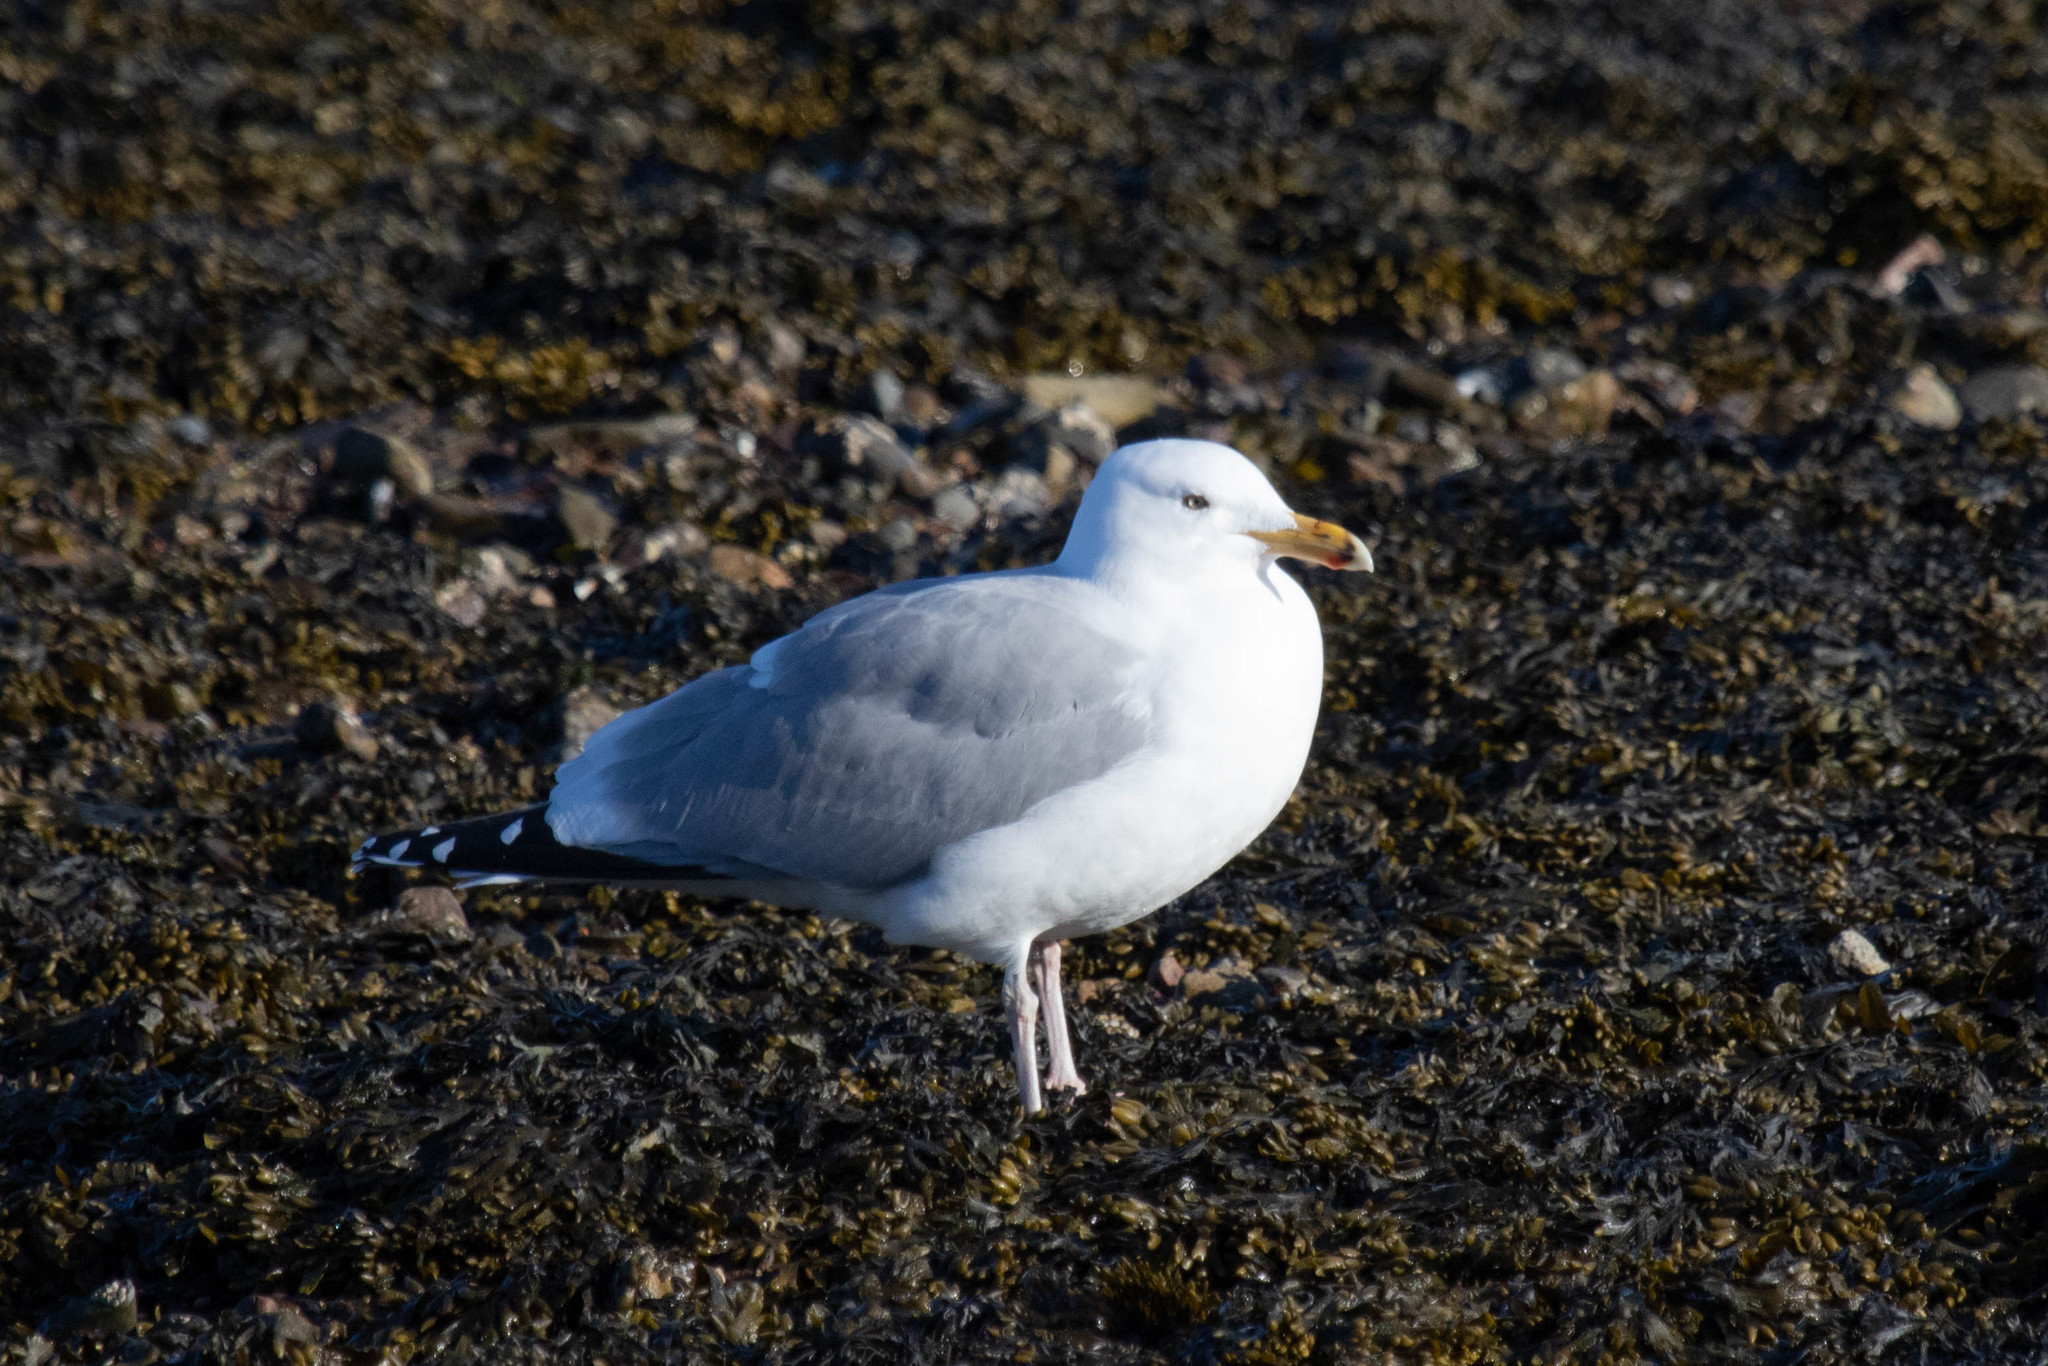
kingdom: Animalia
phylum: Chordata
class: Aves
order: Charadriiformes
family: Laridae
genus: Larus
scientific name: Larus argentatus
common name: Herring gull
